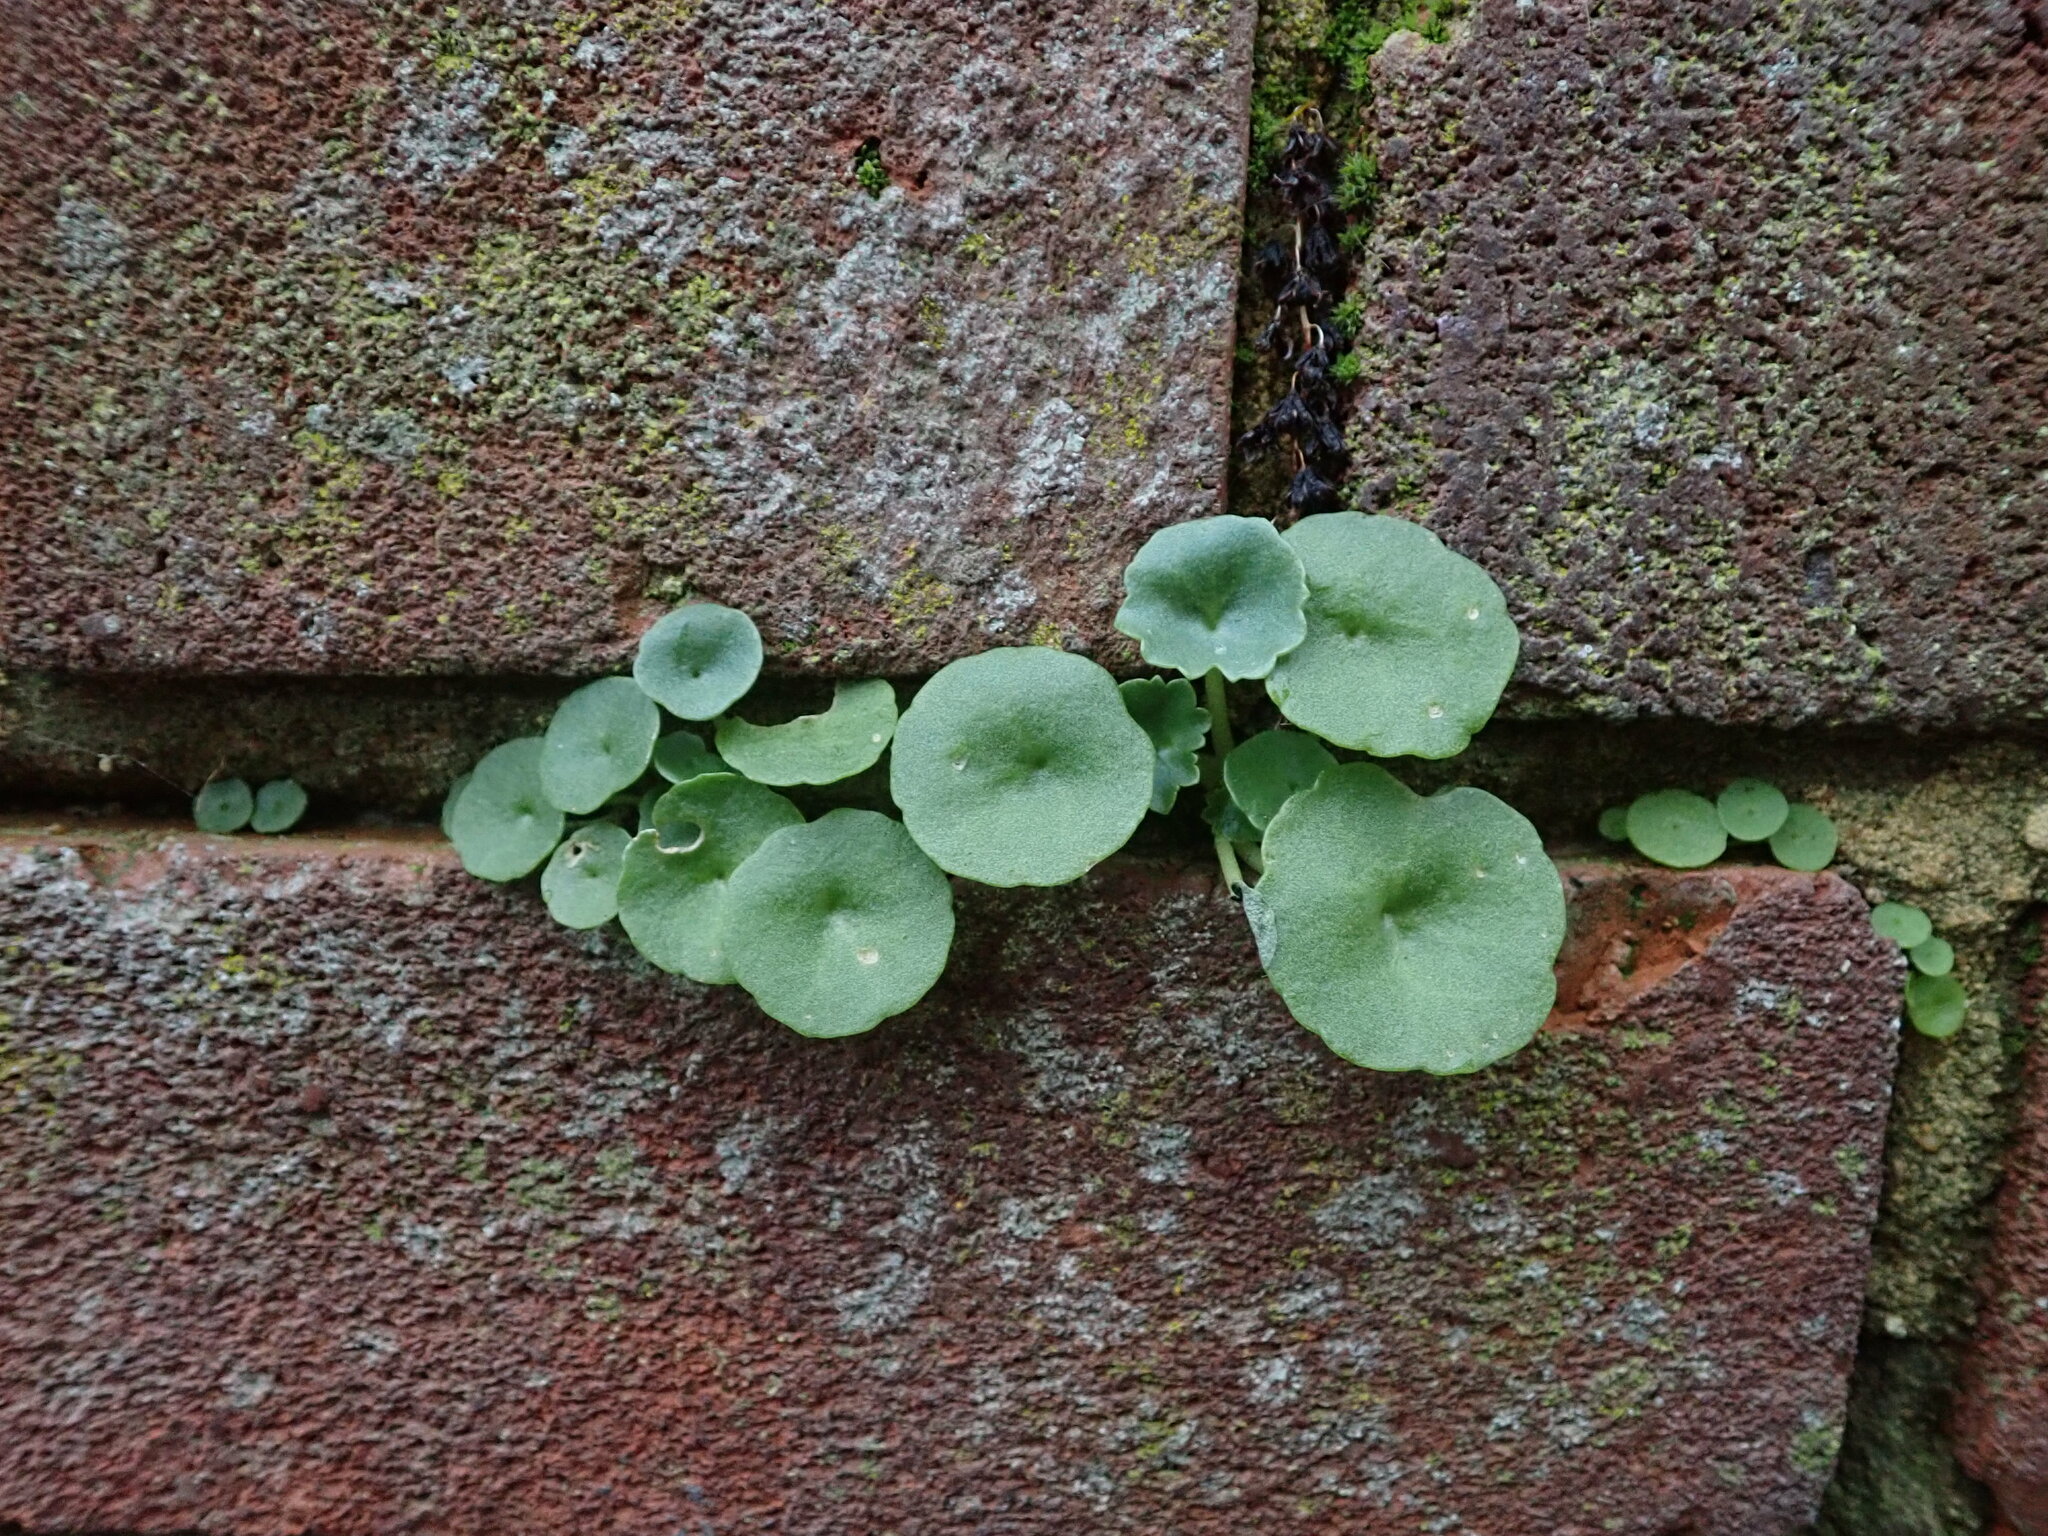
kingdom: Plantae
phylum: Tracheophyta
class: Magnoliopsida
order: Saxifragales
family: Crassulaceae
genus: Umbilicus
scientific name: Umbilicus rupestris
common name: Navelwort
